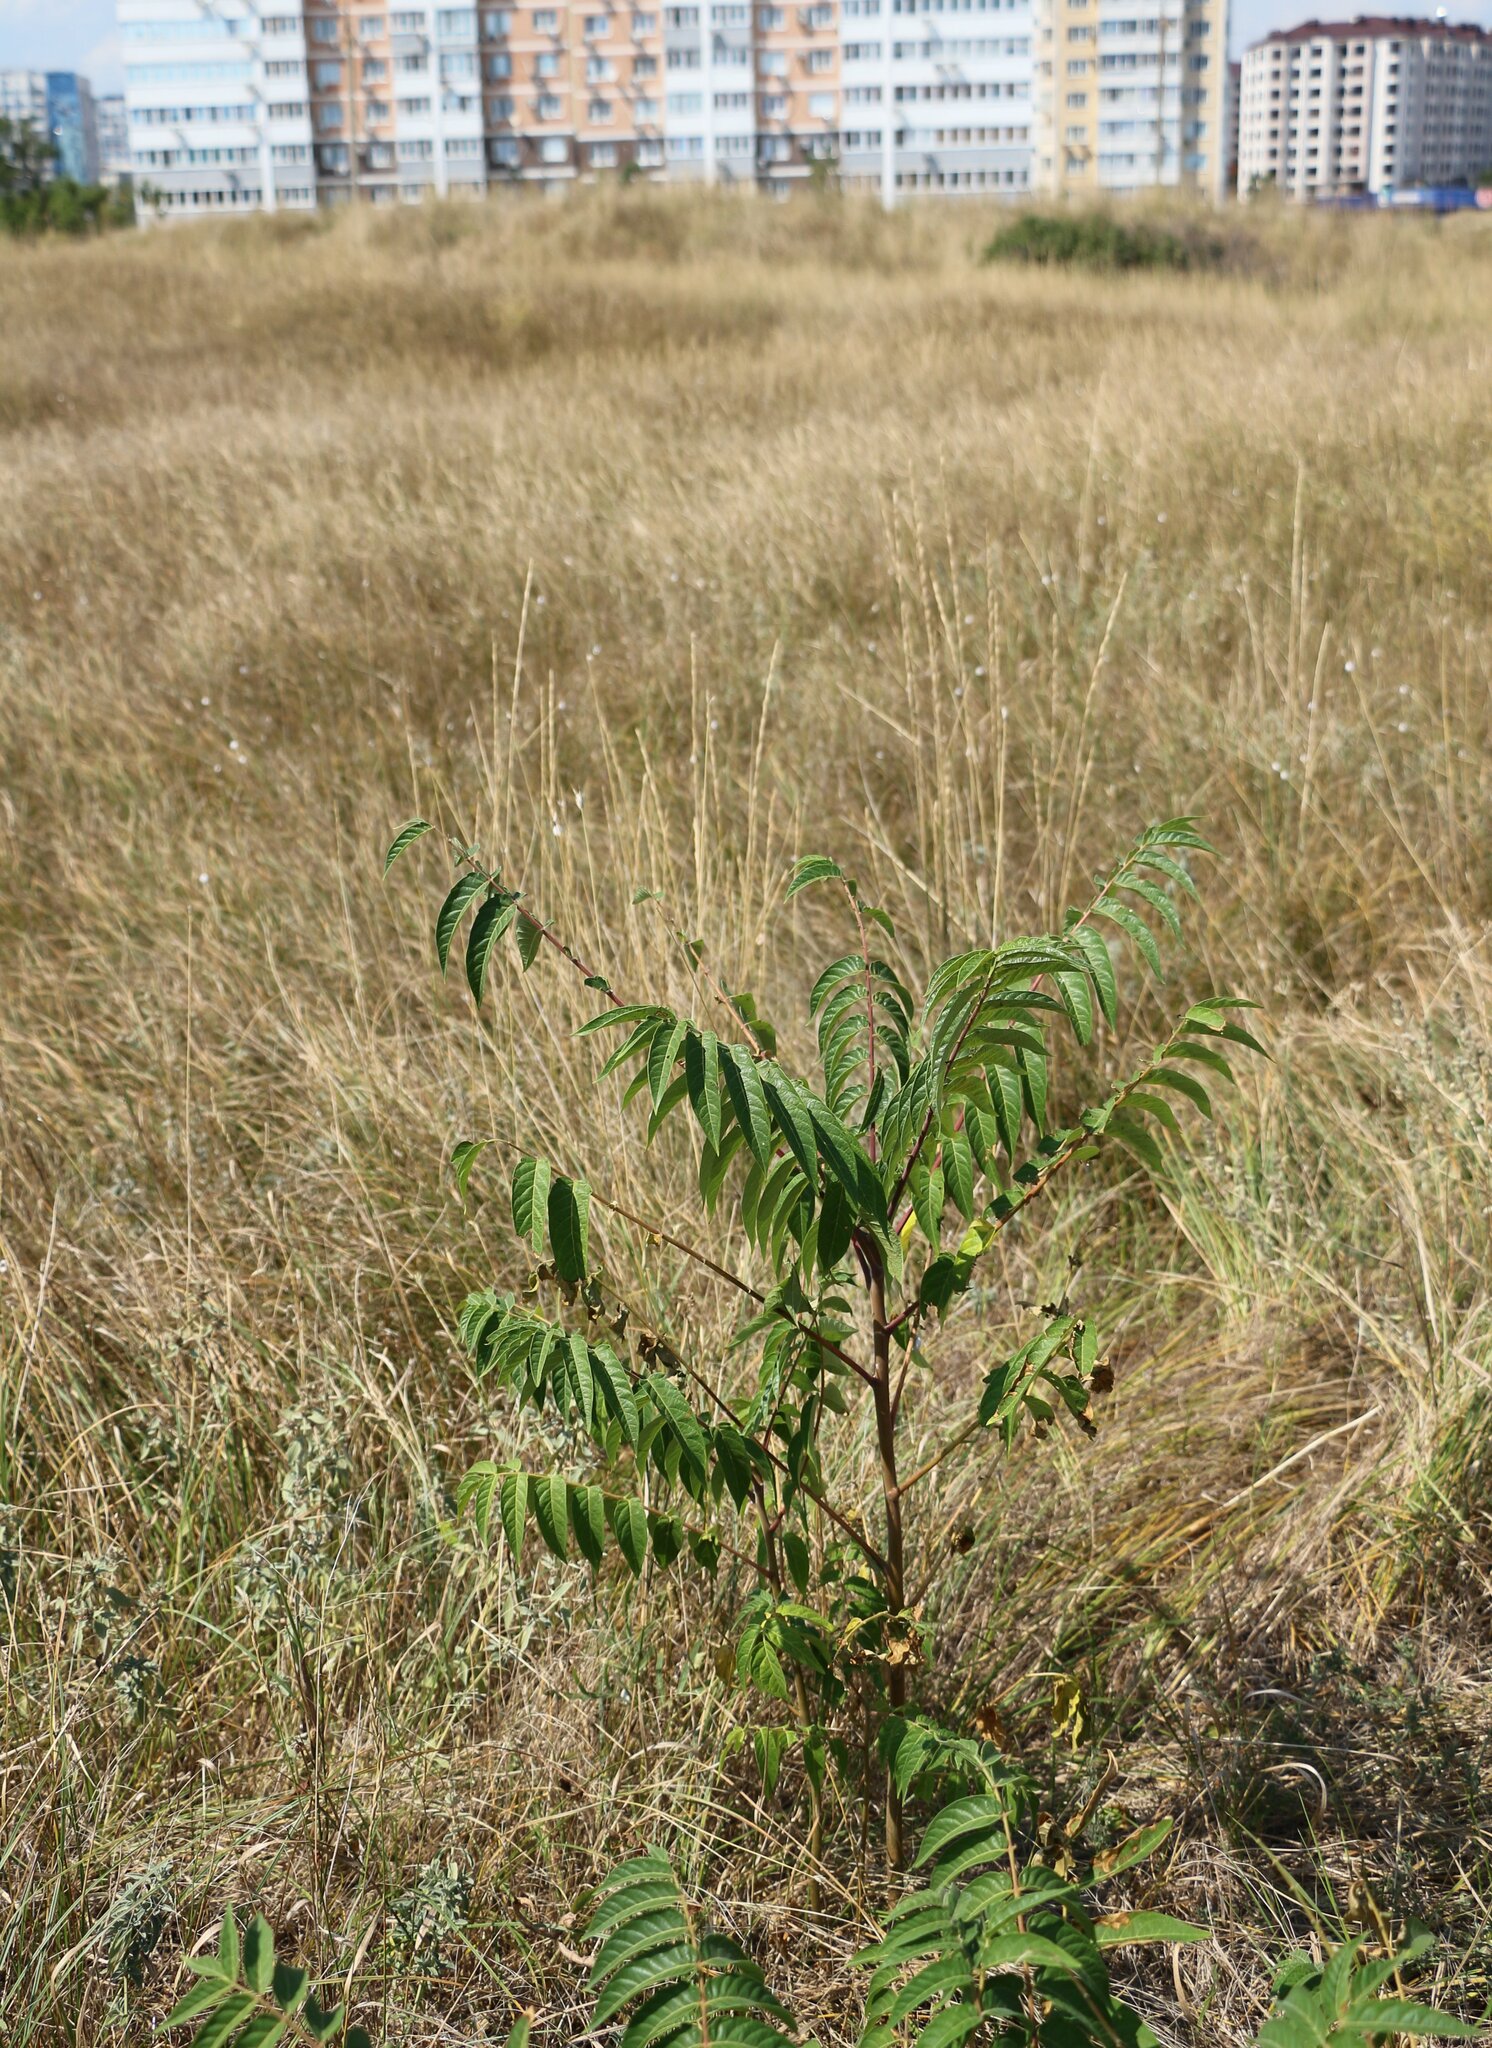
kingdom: Plantae
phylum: Tracheophyta
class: Magnoliopsida
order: Sapindales
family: Simaroubaceae
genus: Ailanthus
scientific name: Ailanthus altissima
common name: Tree-of-heaven
